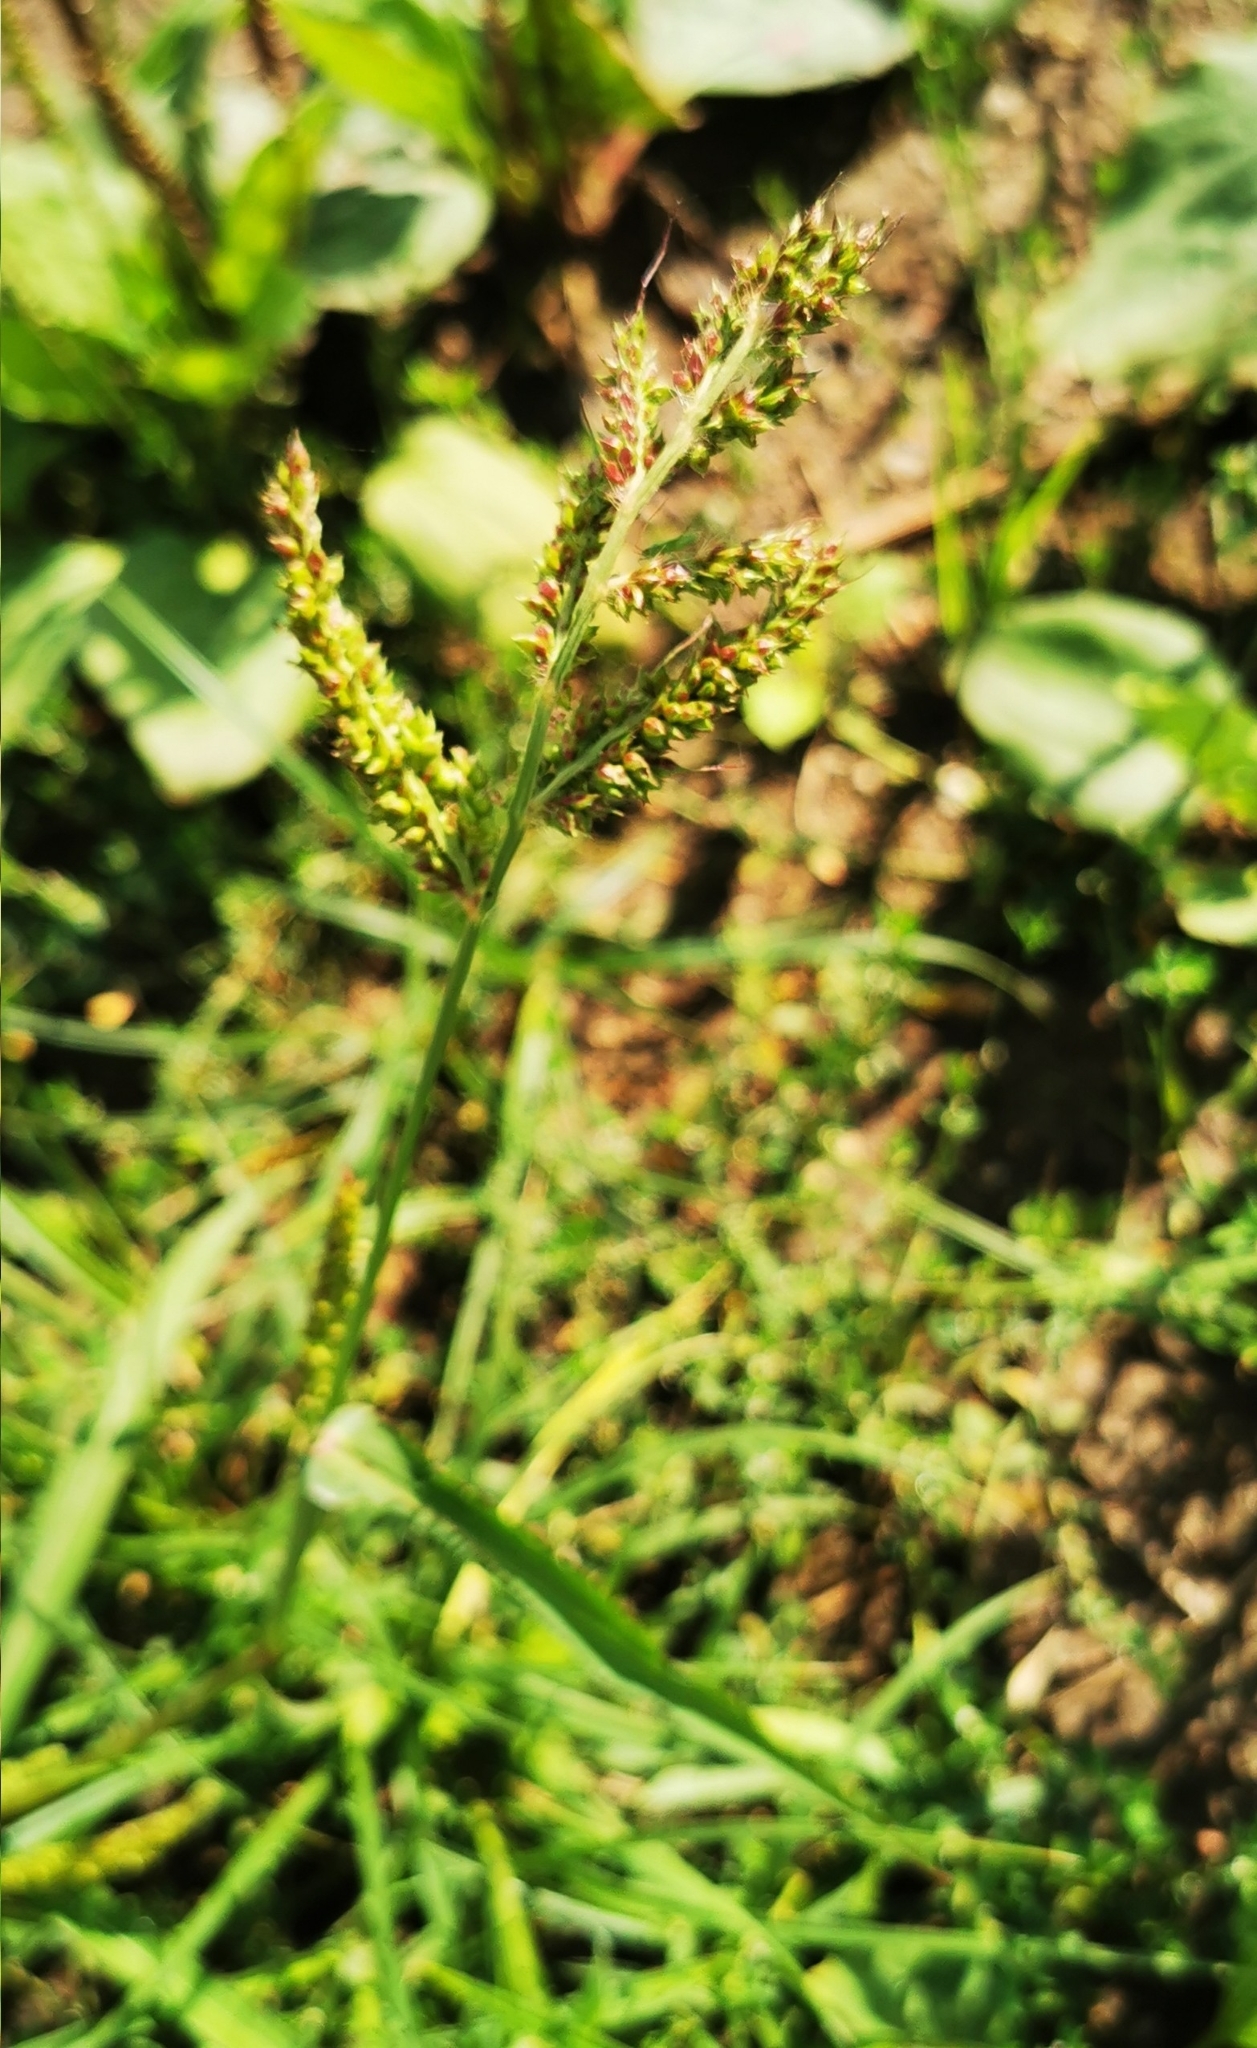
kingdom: Plantae
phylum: Tracheophyta
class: Liliopsida
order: Poales
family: Poaceae
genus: Echinochloa
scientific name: Echinochloa crus-galli
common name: Cockspur
